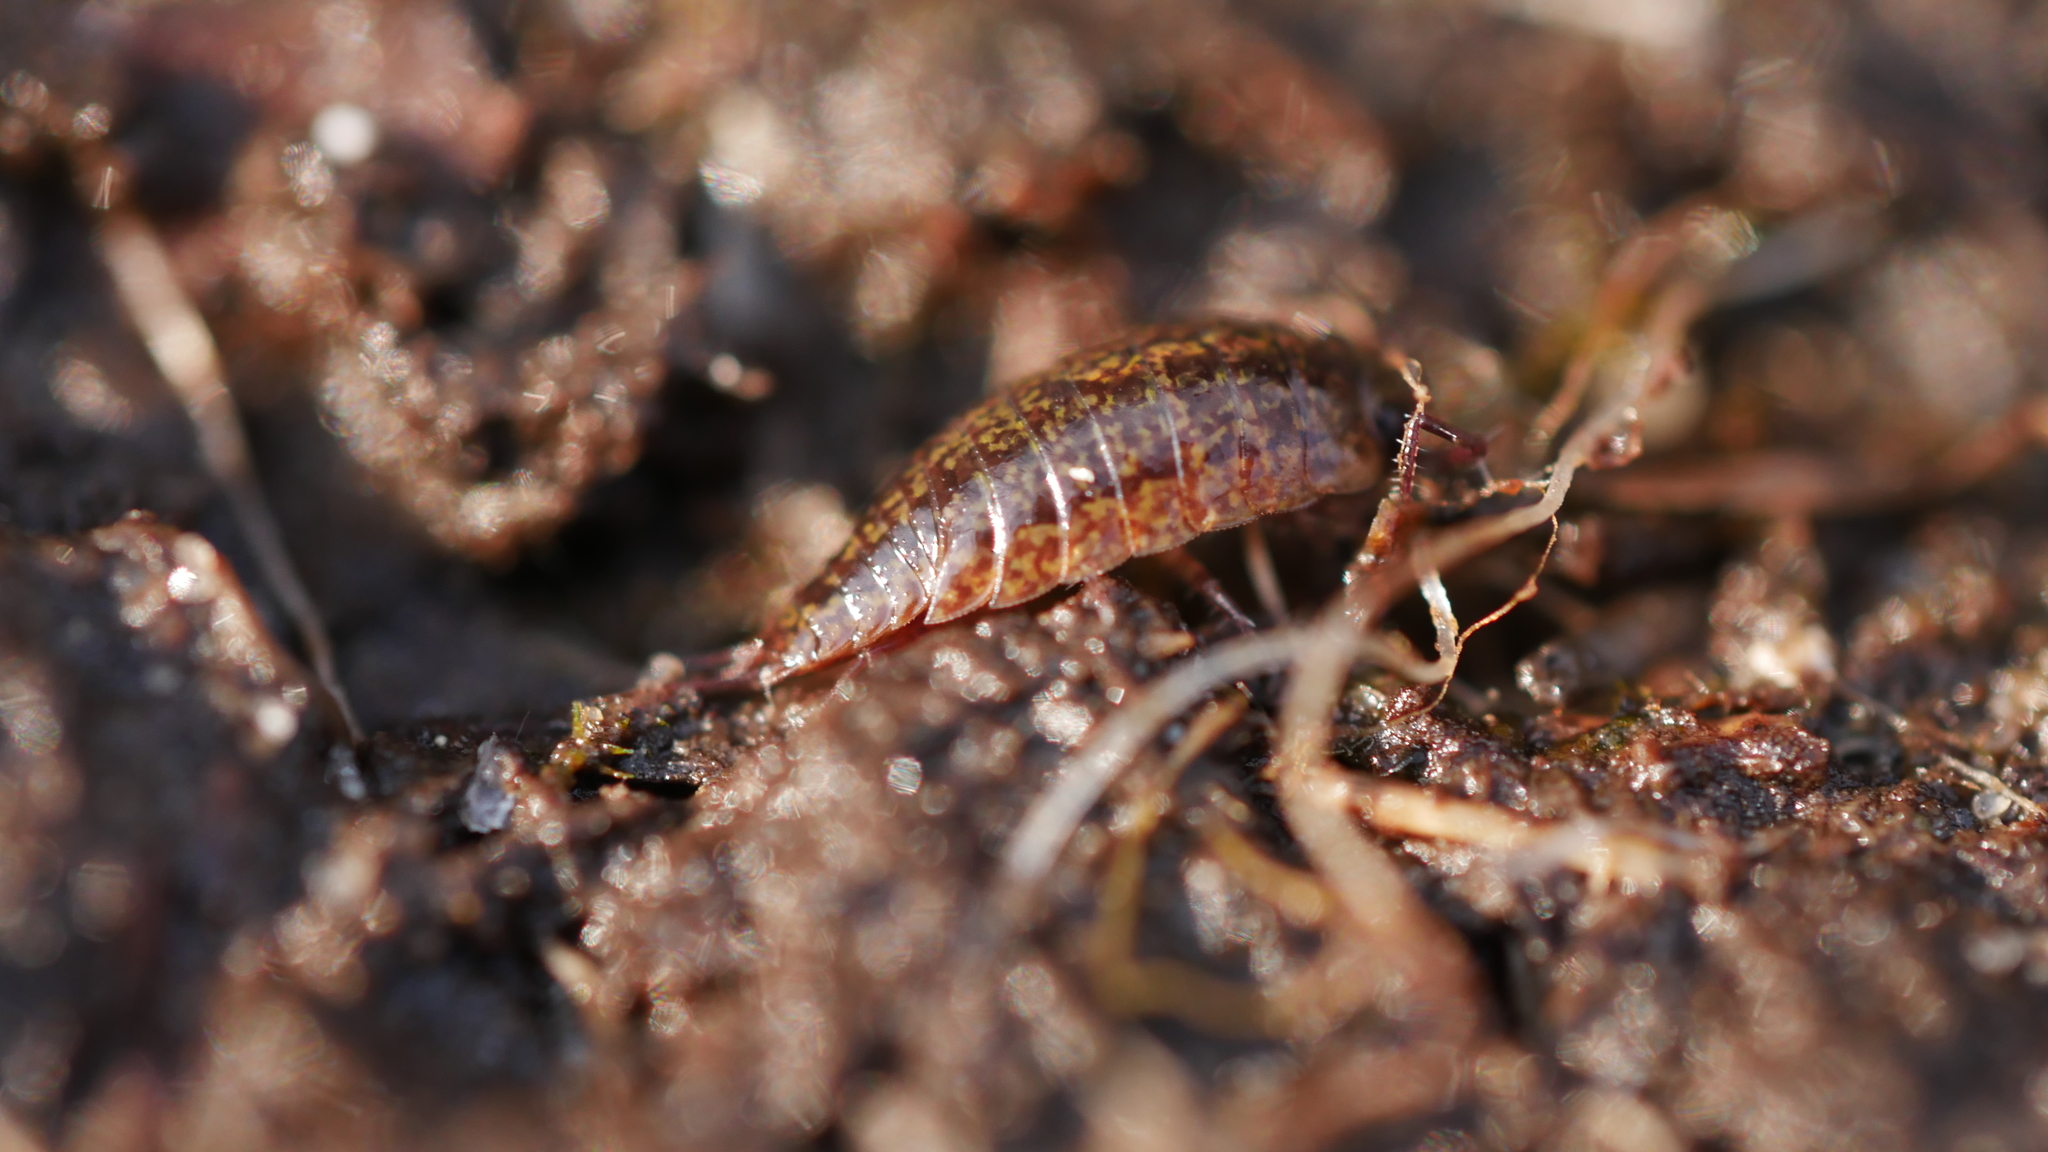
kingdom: Animalia
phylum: Arthropoda
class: Malacostraca
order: Isopoda
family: Ligiidae
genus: Ligidium
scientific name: Ligidium elrodii
